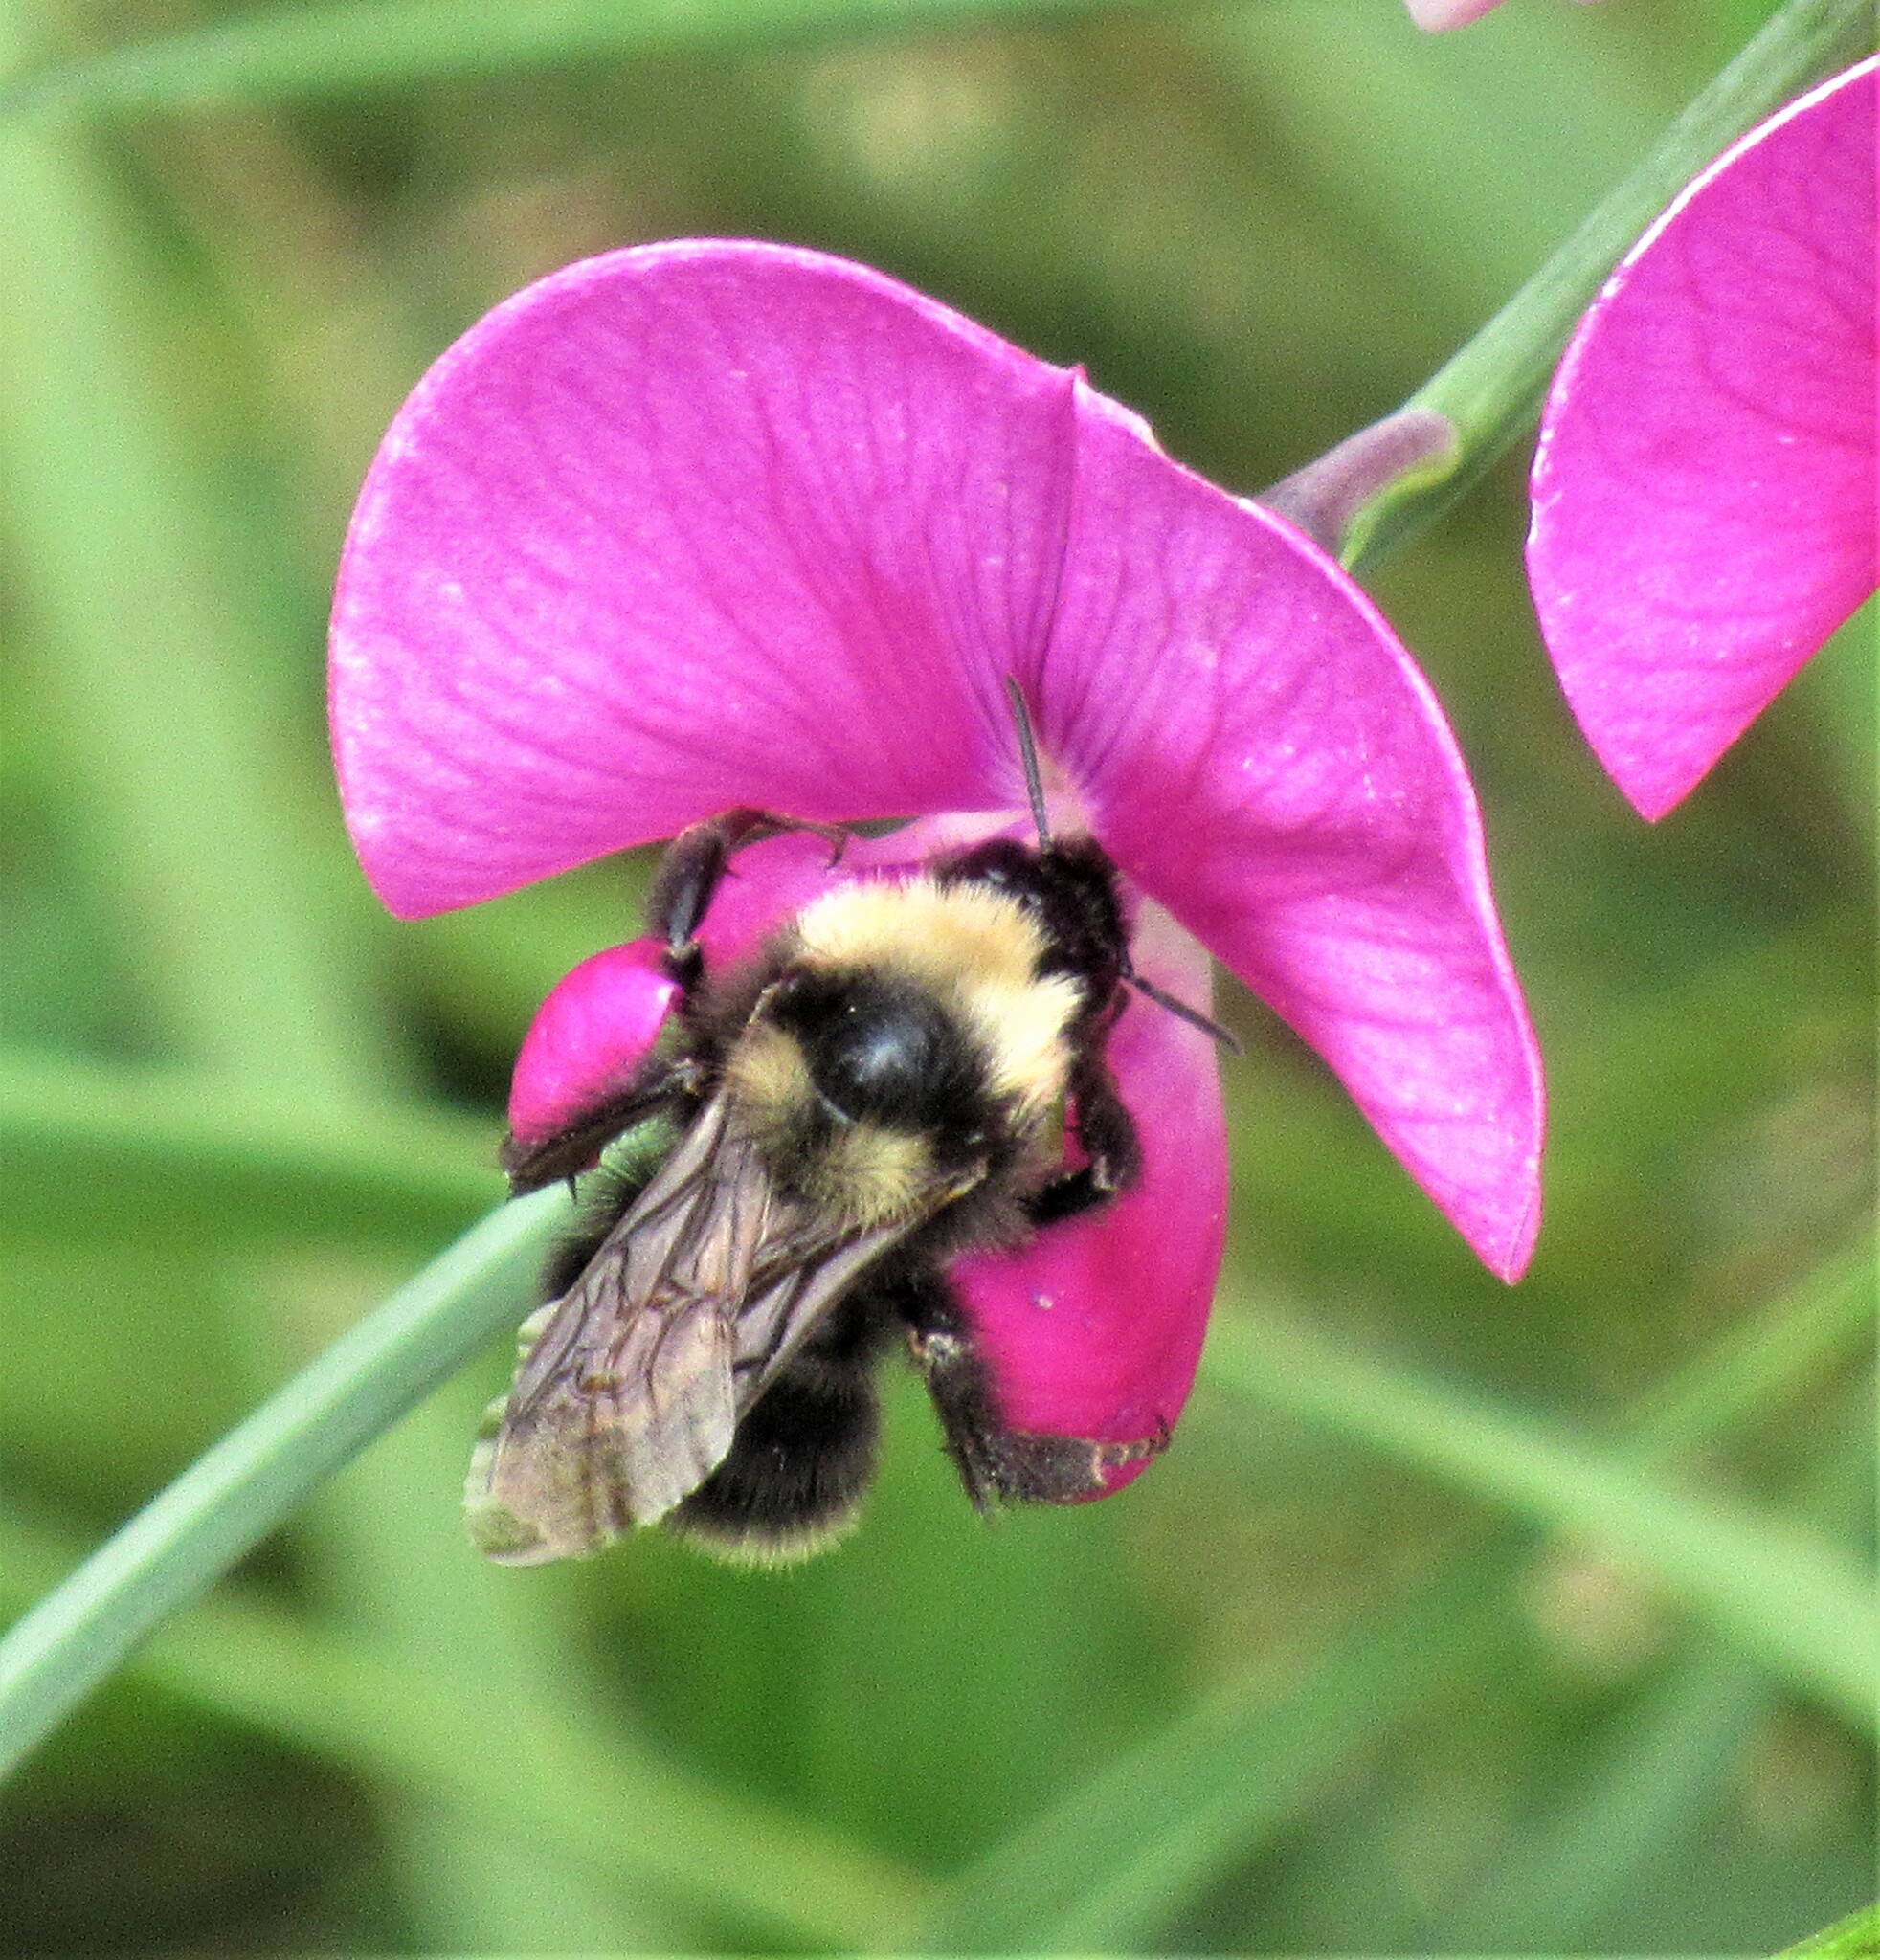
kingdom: Animalia
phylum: Arthropoda
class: Insecta
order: Hymenoptera
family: Apidae
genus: Bombus
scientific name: Bombus californicus
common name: California bumble bee
